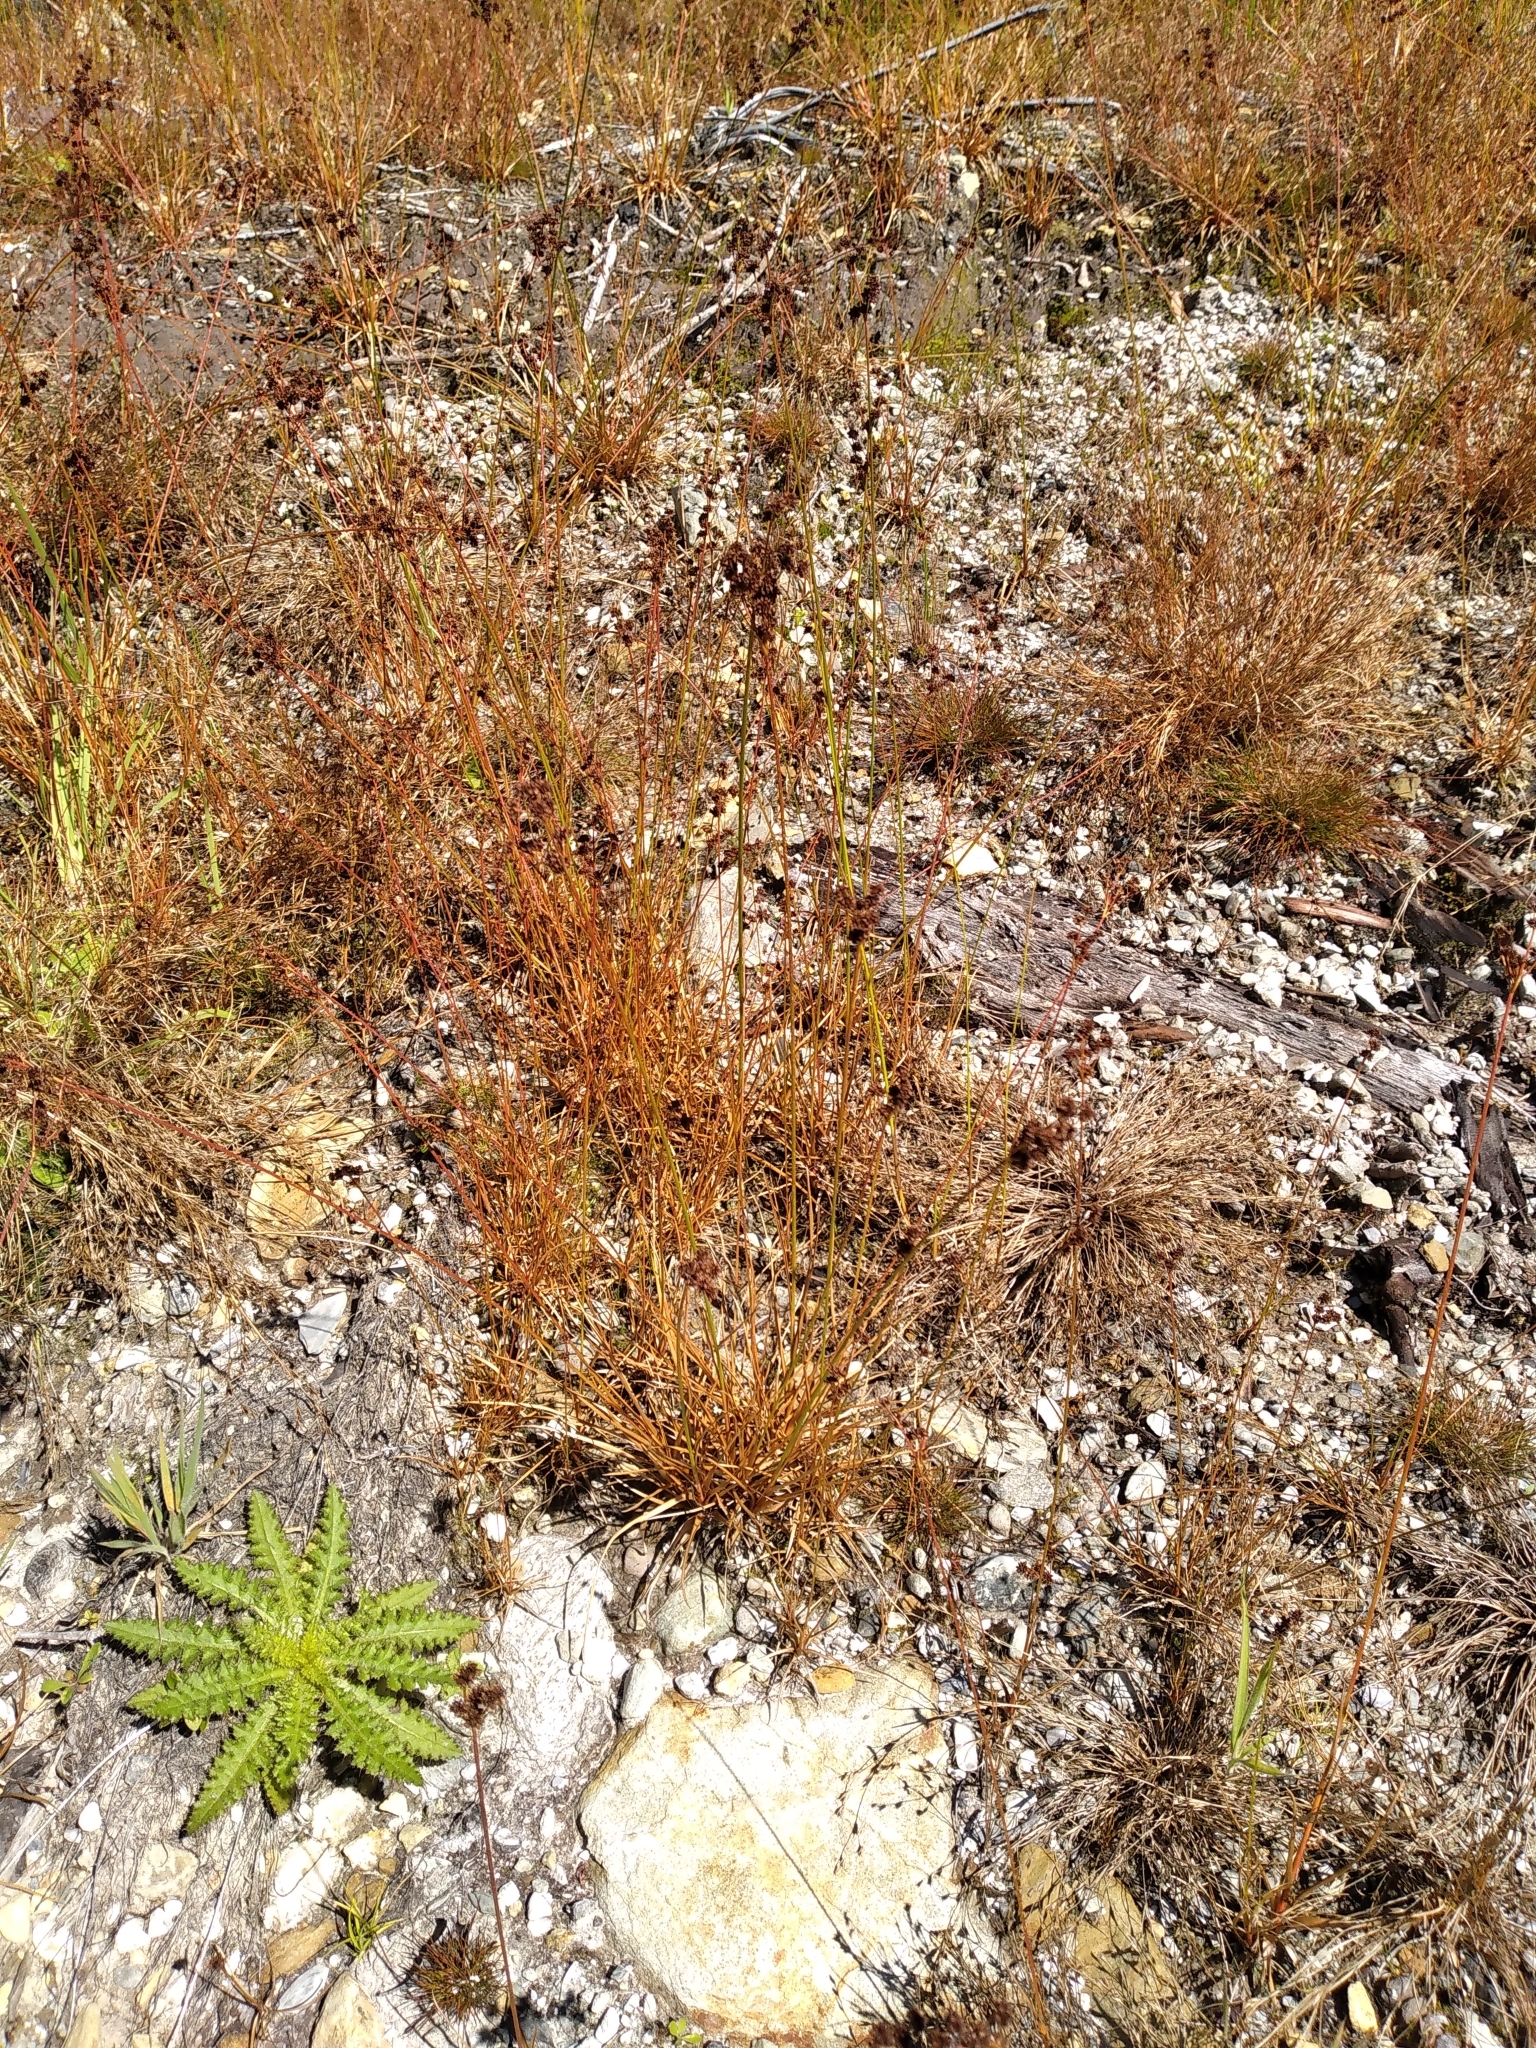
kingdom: Plantae
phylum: Tracheophyta
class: Liliopsida
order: Poales
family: Juncaceae
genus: Juncus
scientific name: Juncus planifolius
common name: Broadleaf rush
